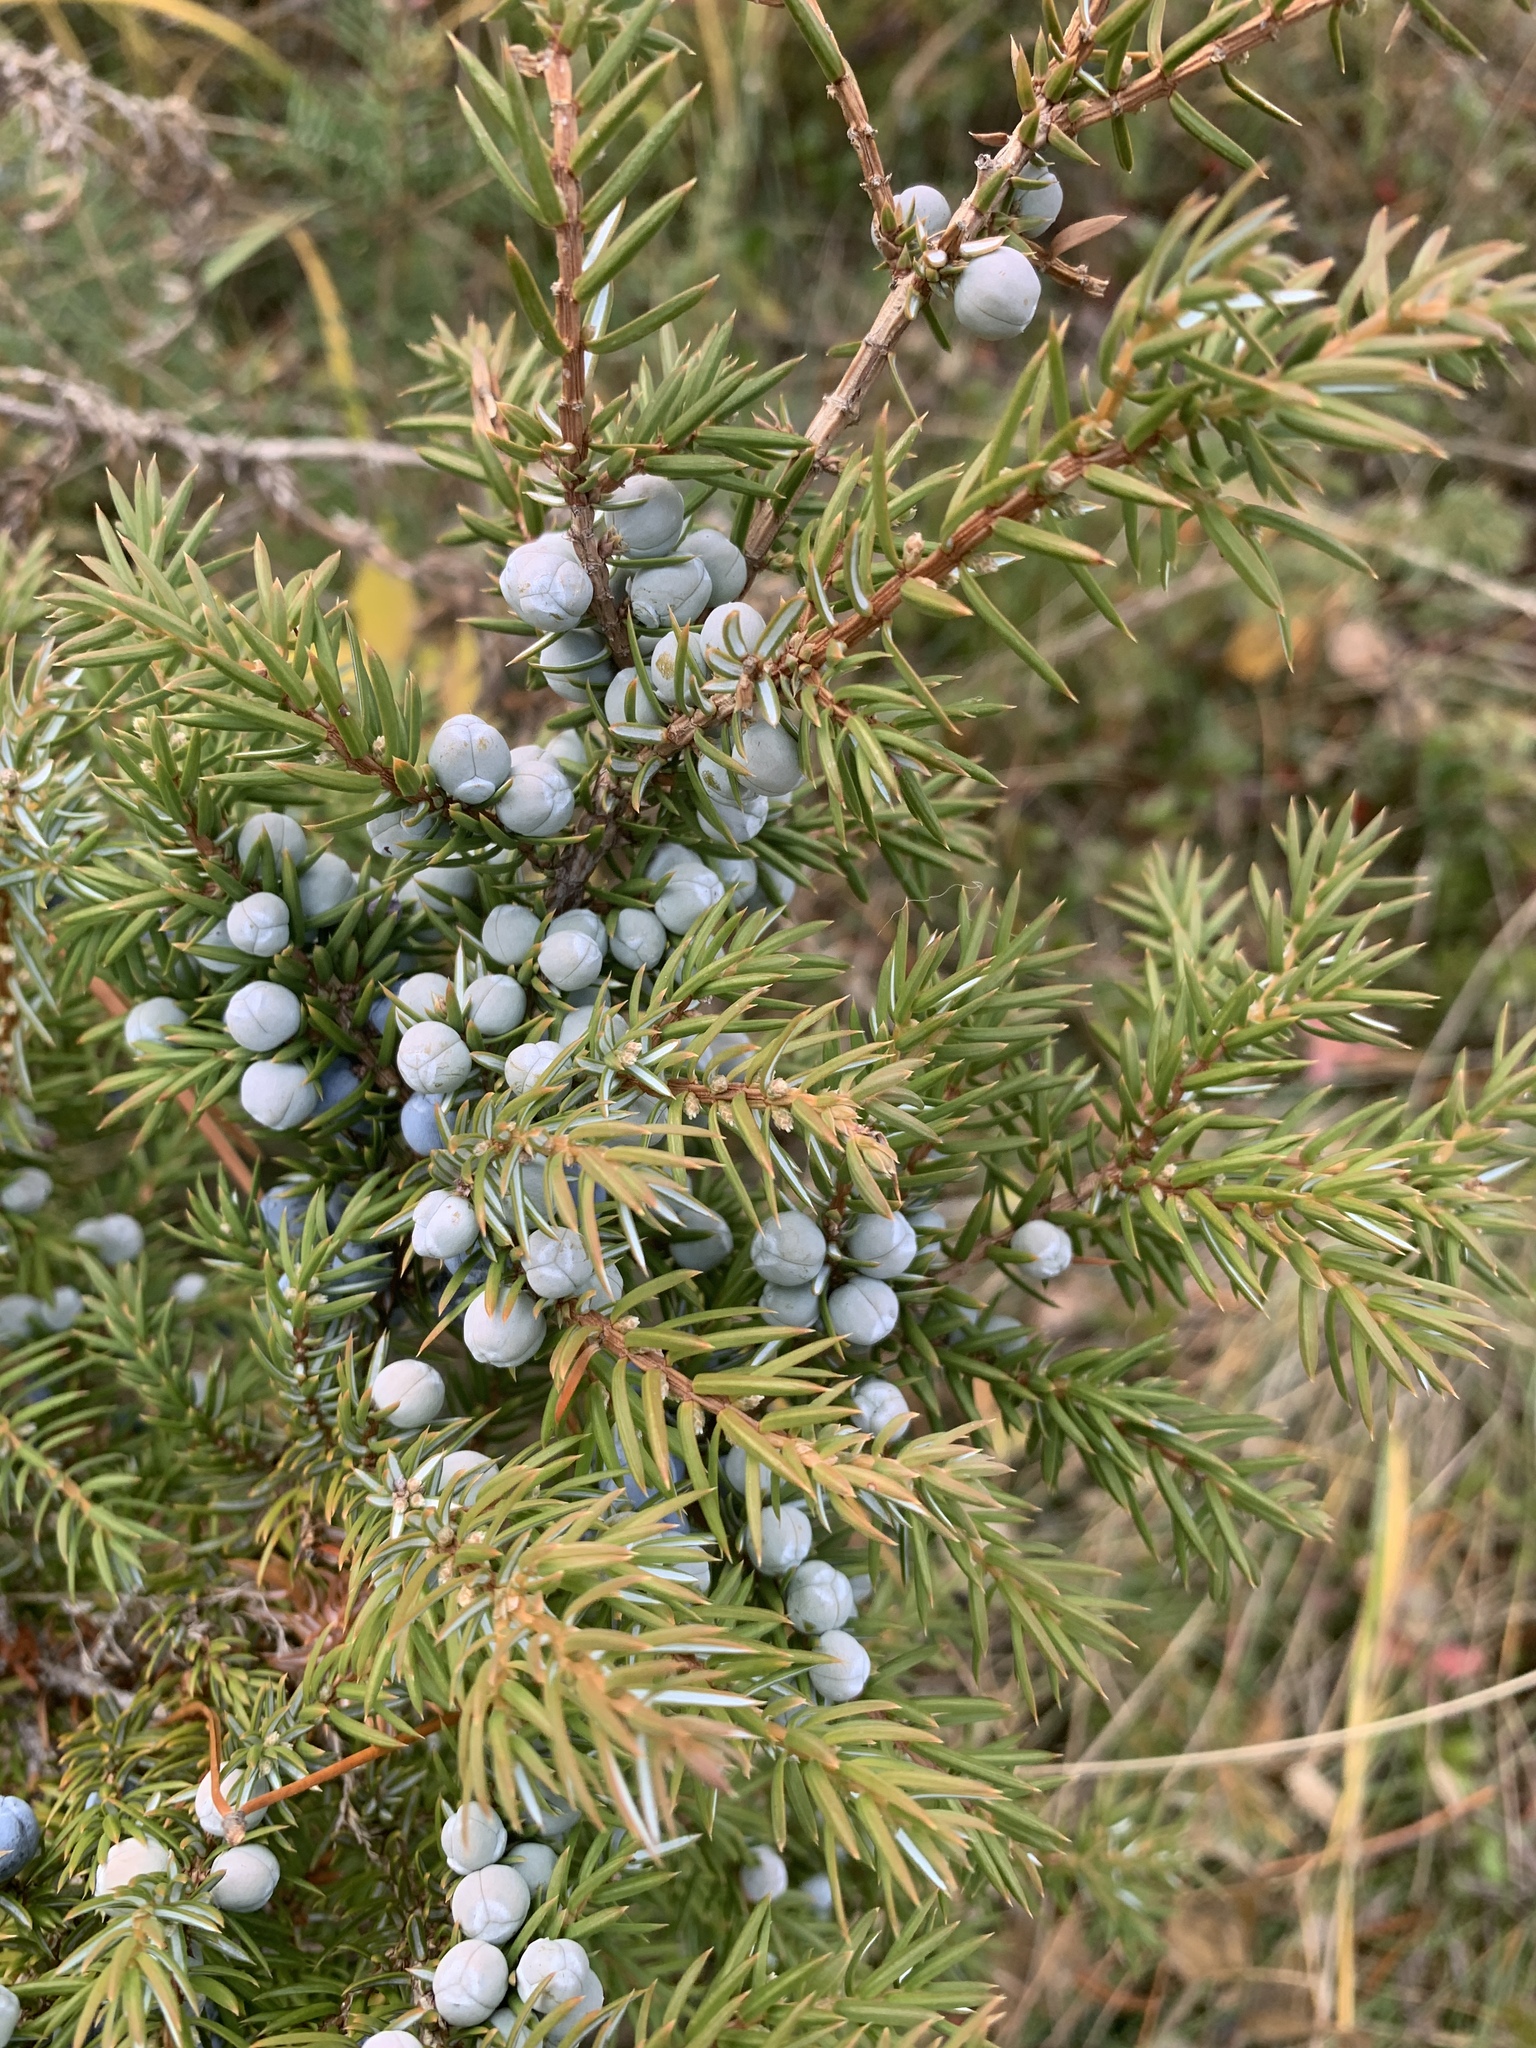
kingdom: Plantae
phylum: Tracheophyta
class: Pinopsida
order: Pinales
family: Cupressaceae
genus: Juniperus
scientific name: Juniperus communis
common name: Common juniper
